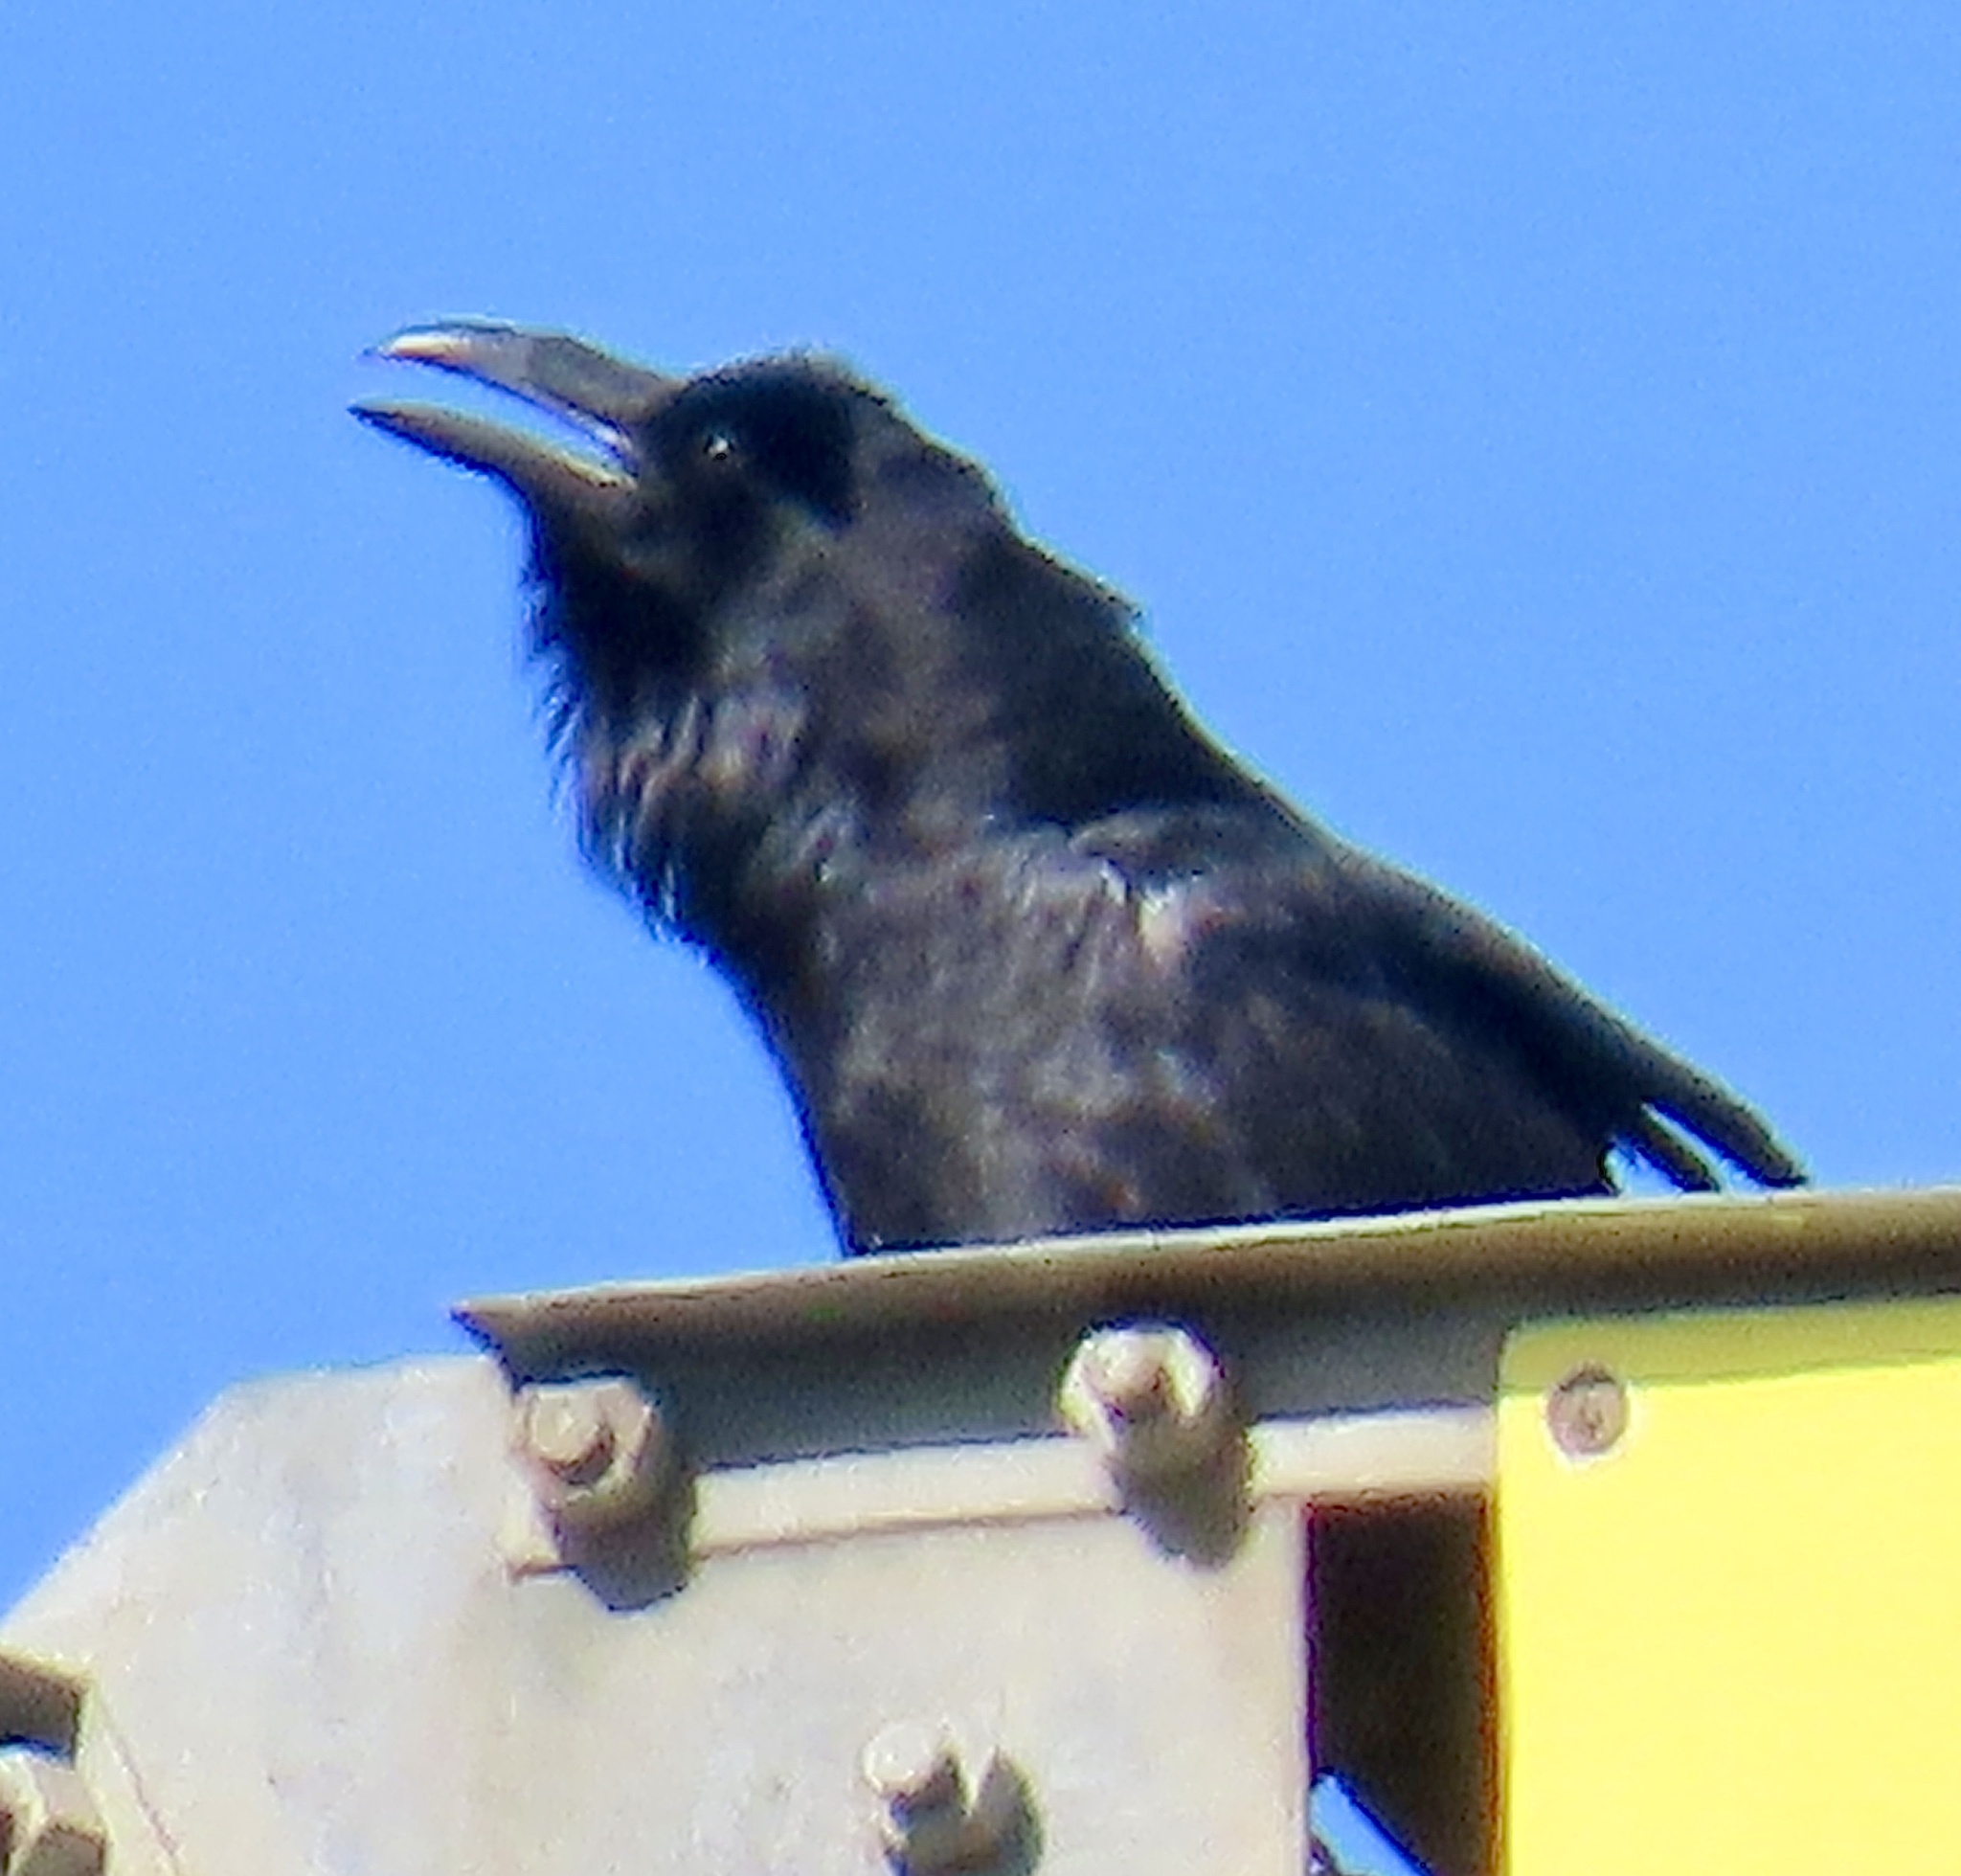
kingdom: Animalia
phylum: Chordata
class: Aves
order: Passeriformes
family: Corvidae
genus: Corvus
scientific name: Corvus corax
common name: Common raven
